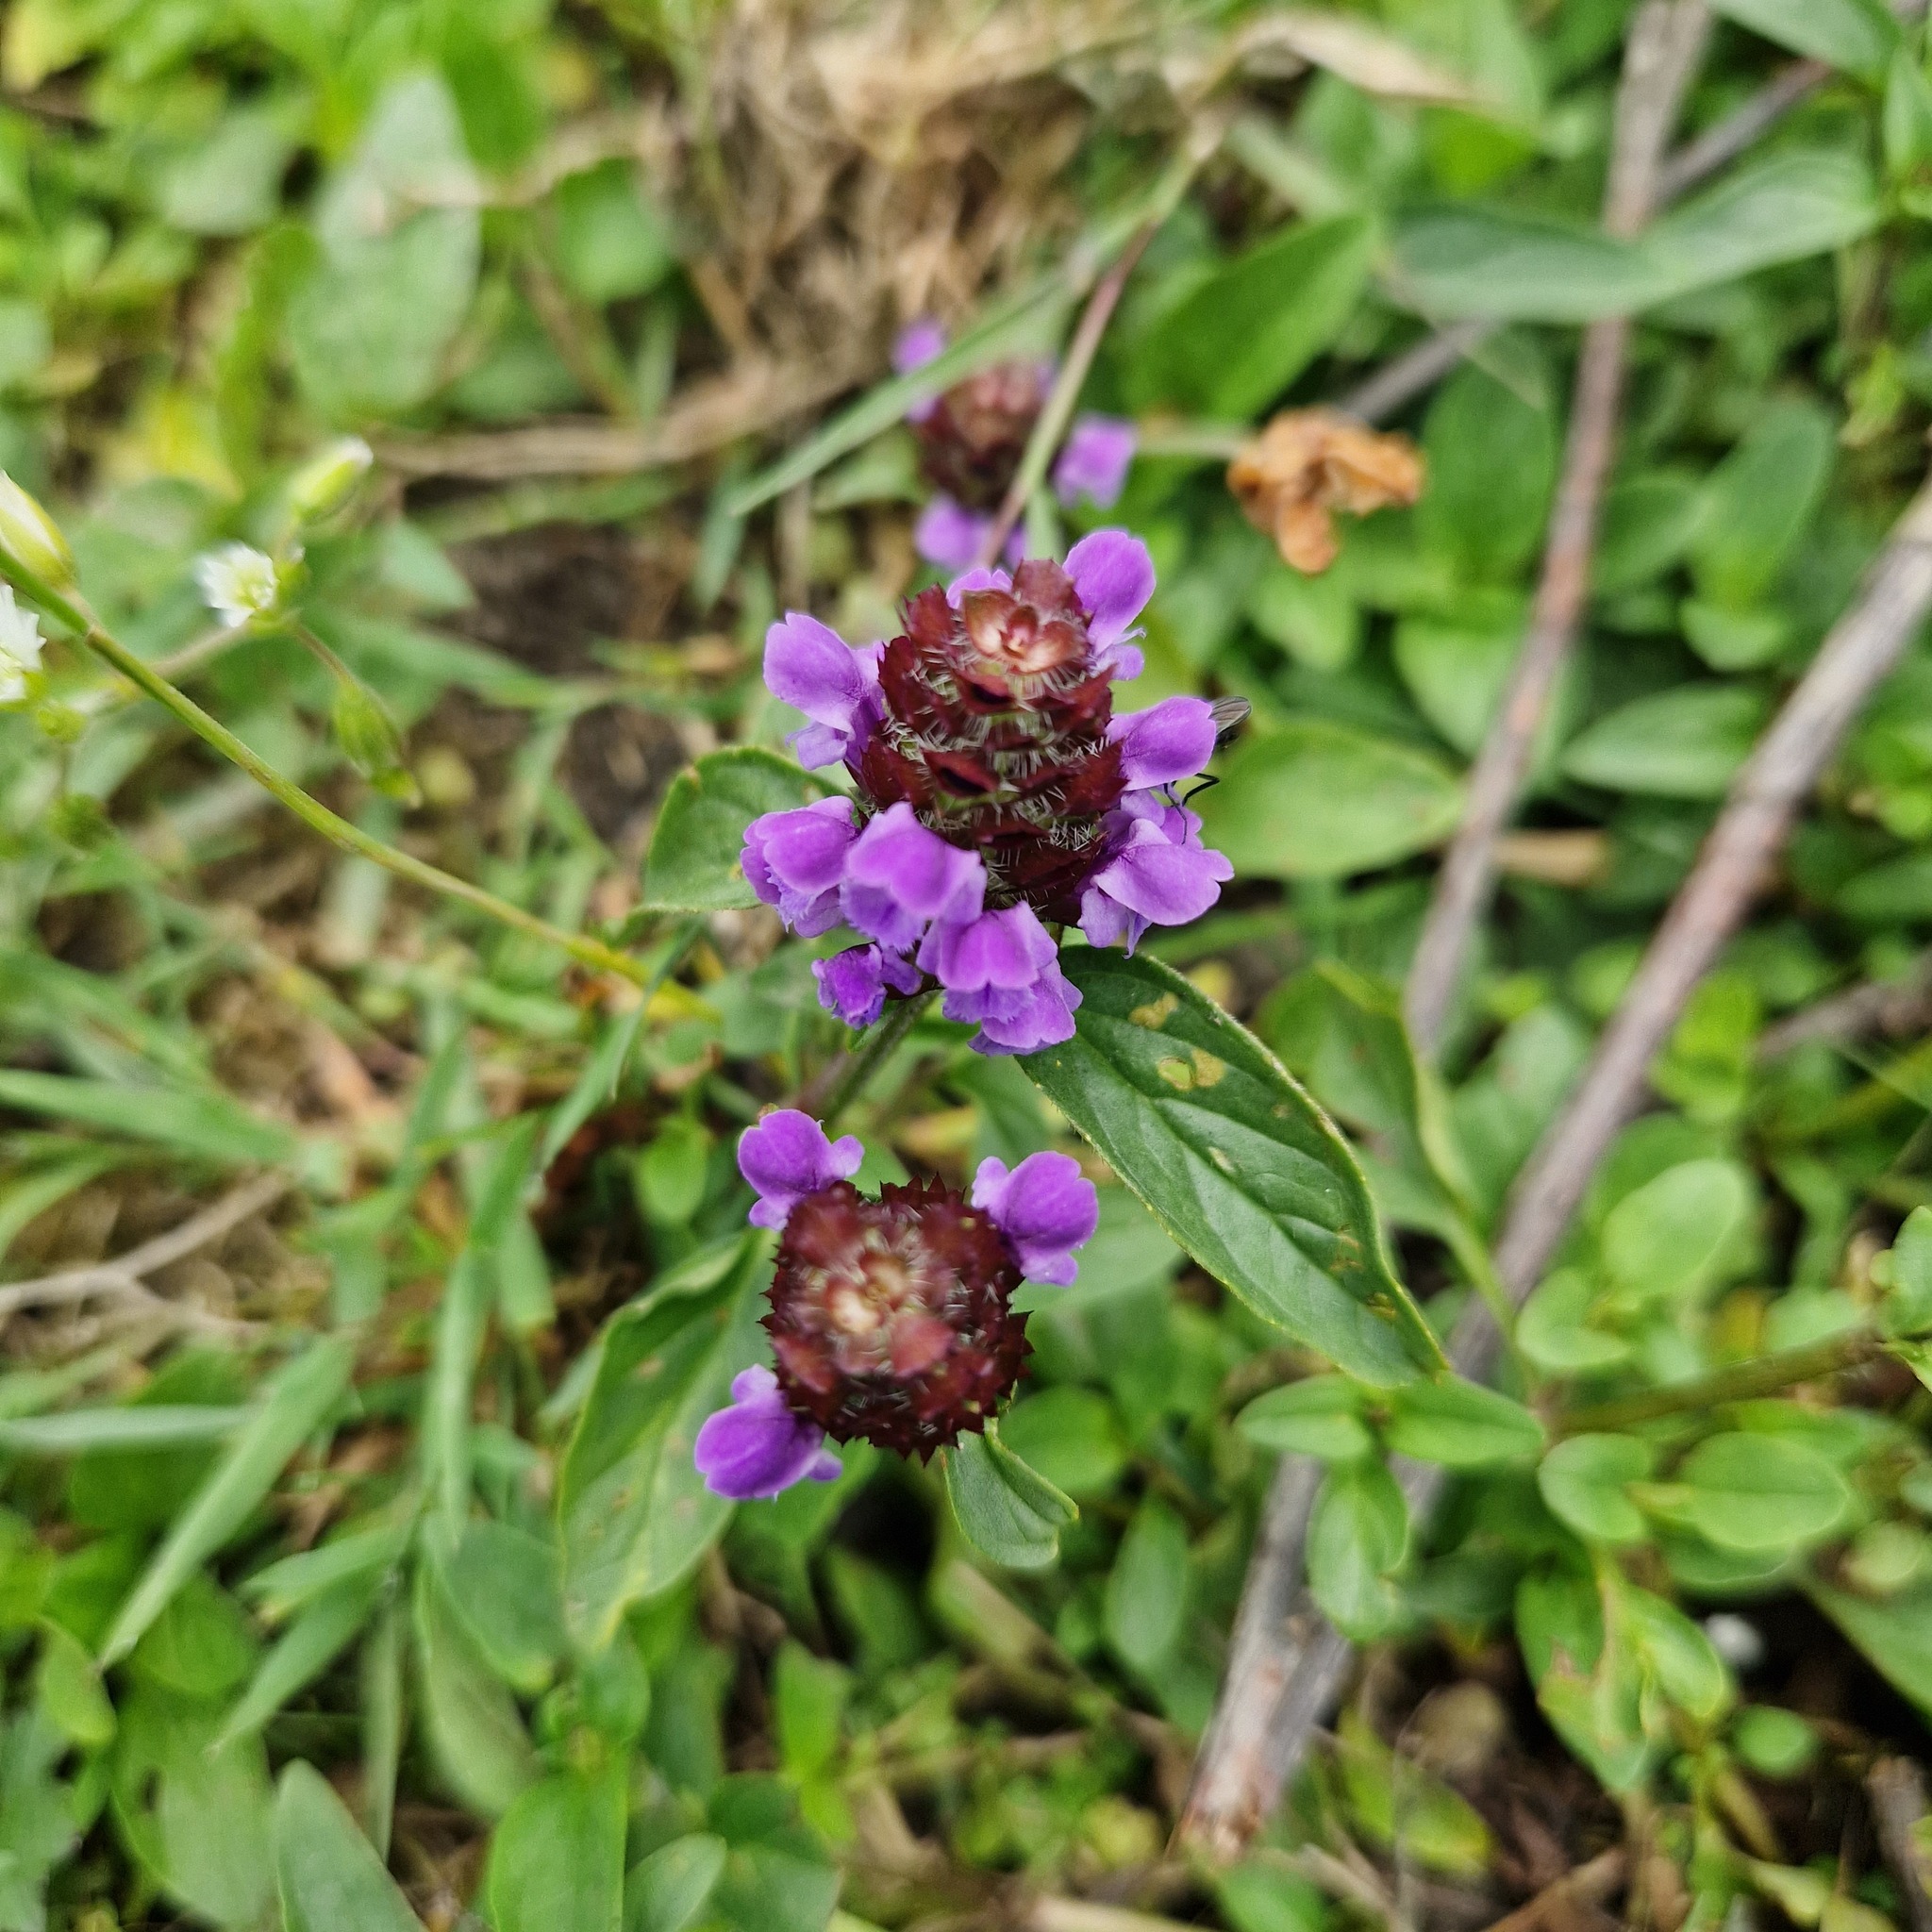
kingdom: Plantae
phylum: Tracheophyta
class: Magnoliopsida
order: Lamiales
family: Lamiaceae
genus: Prunella
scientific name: Prunella vulgaris
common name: Heal-all
